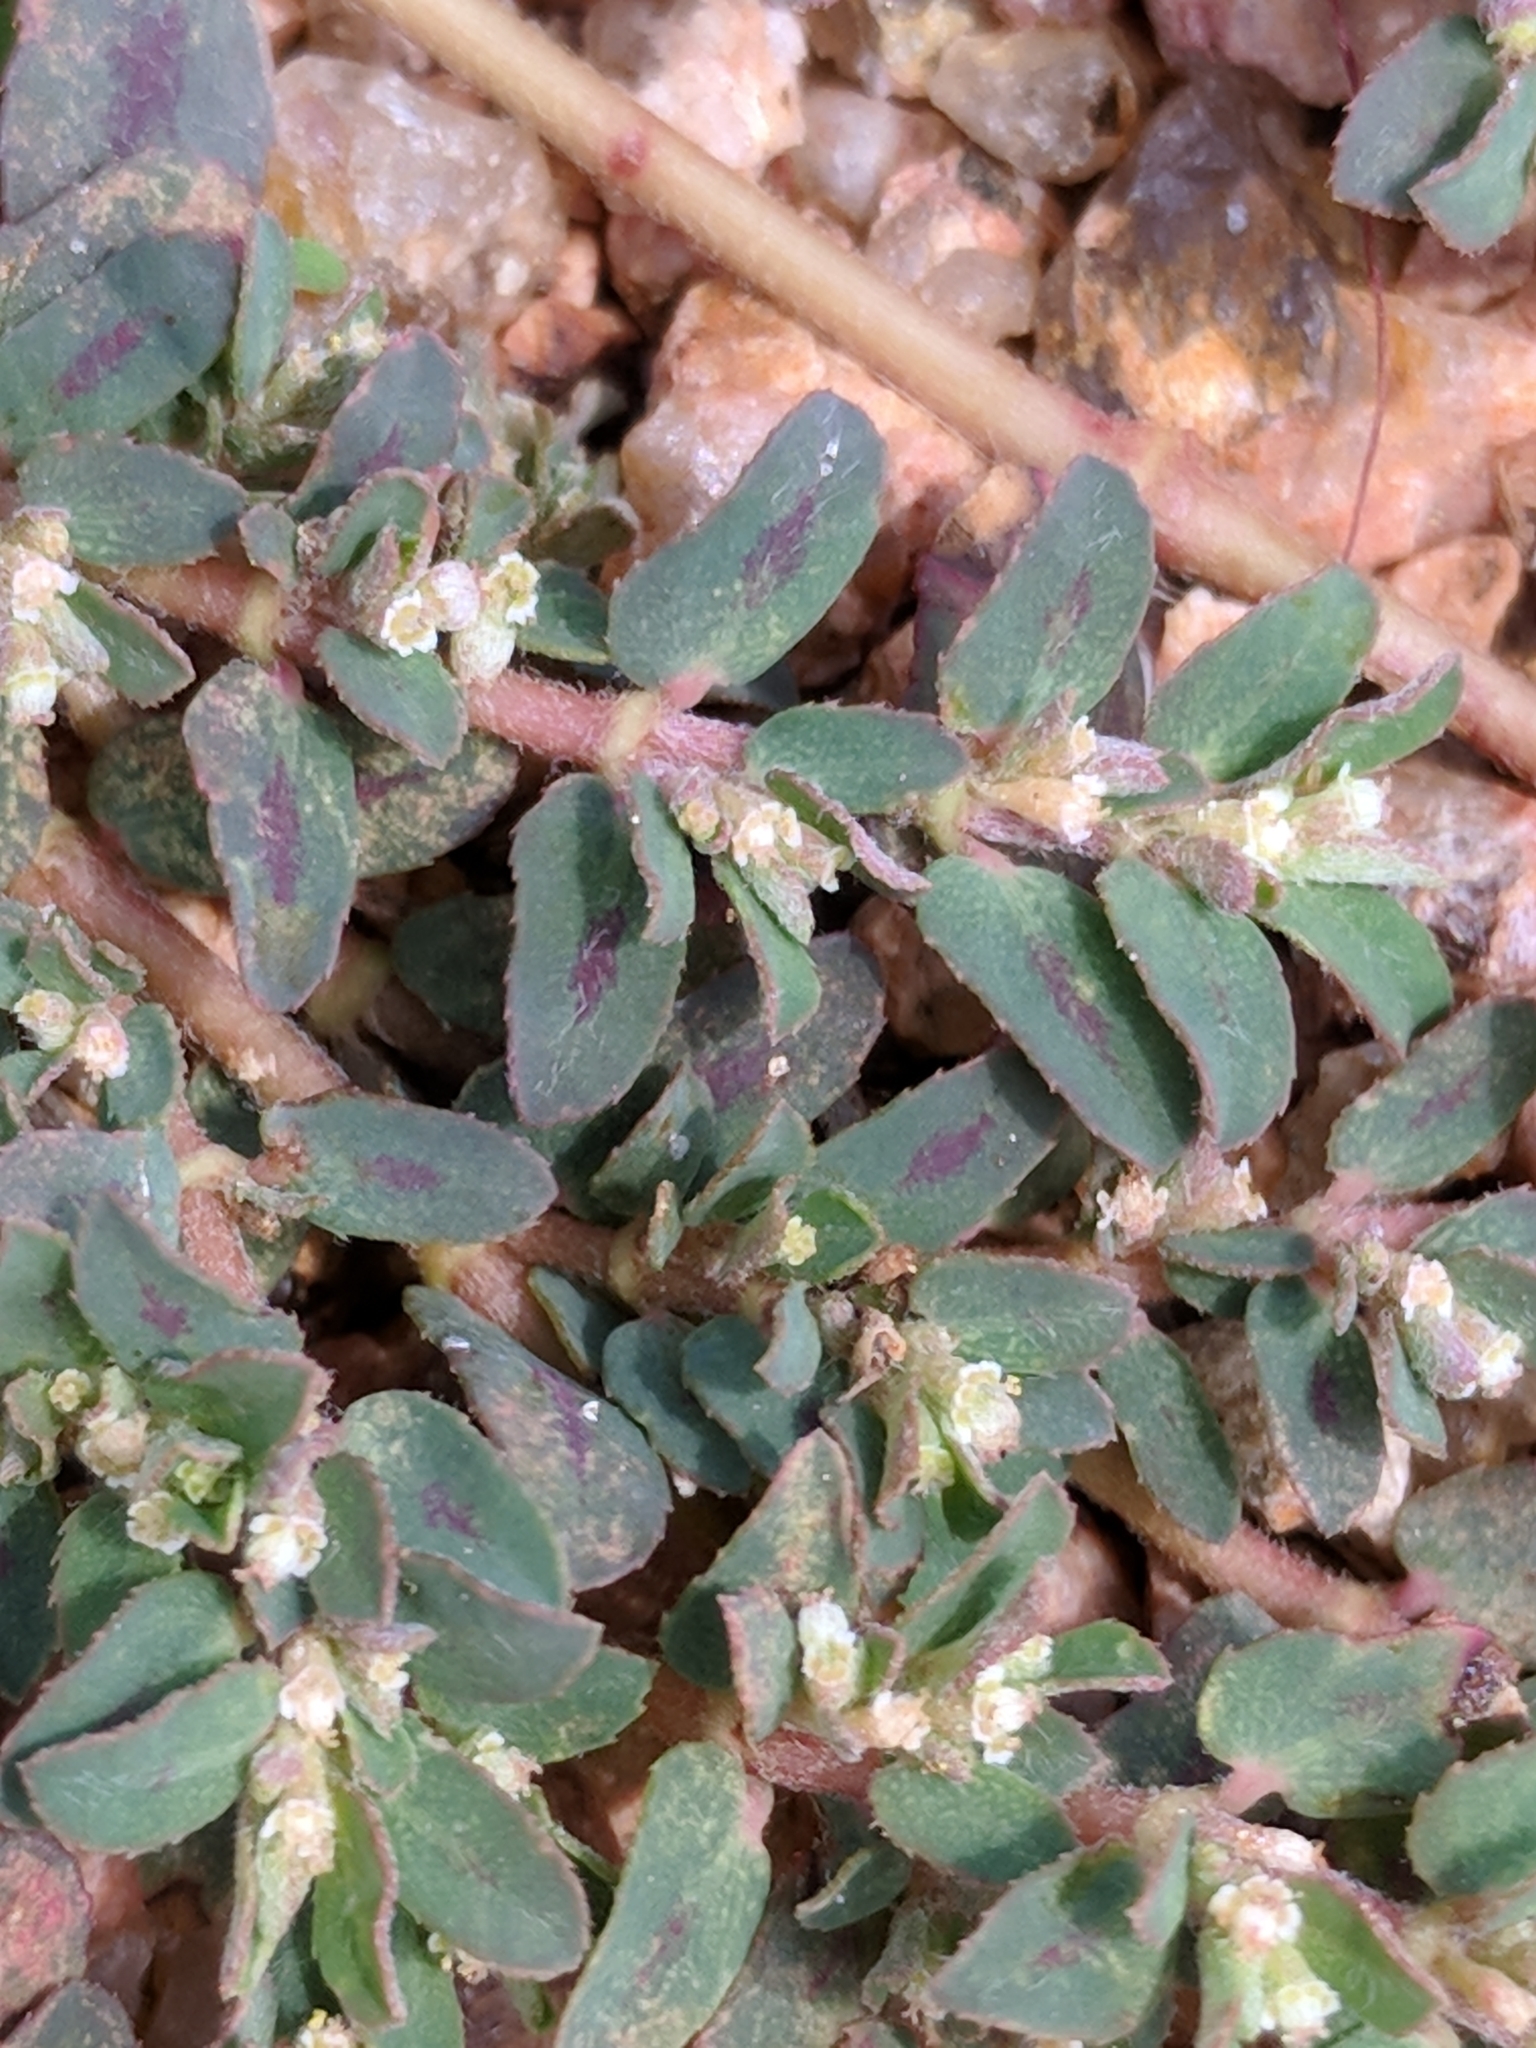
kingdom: Plantae
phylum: Tracheophyta
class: Magnoliopsida
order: Malpighiales
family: Euphorbiaceae
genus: Euphorbia
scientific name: Euphorbia maculata
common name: Spotted spurge
